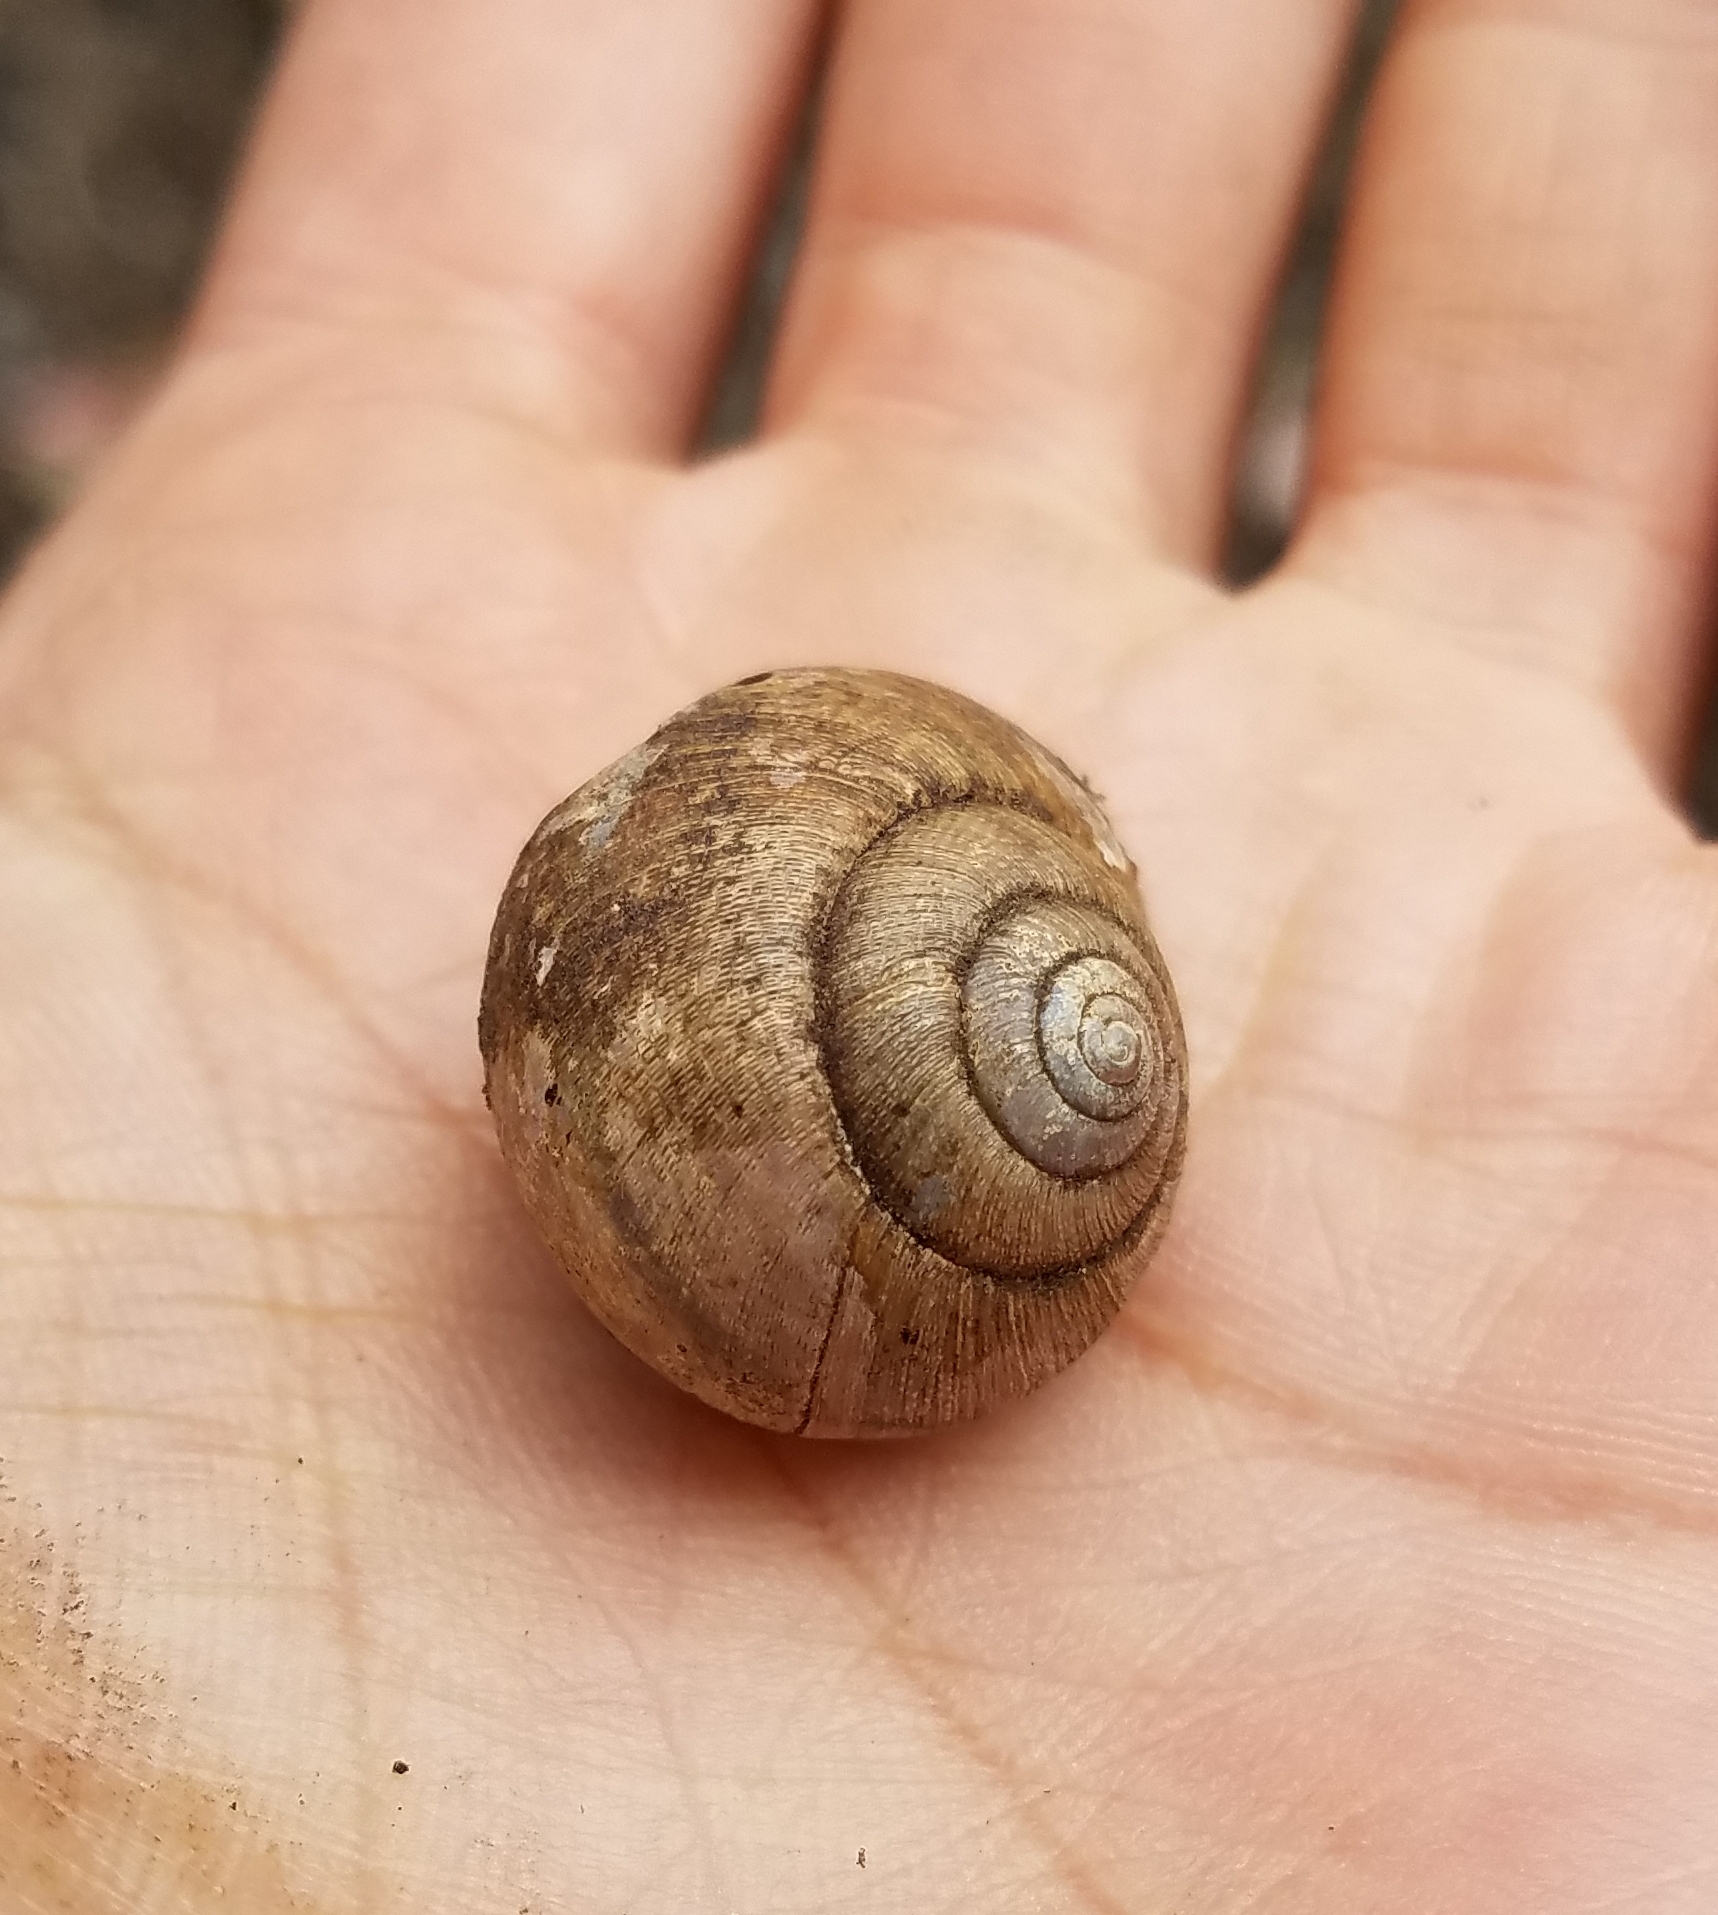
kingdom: Animalia
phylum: Mollusca
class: Gastropoda
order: Stylommatophora
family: Xanthonychidae
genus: Helminthoglypta
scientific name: Helminthoglypta nickliniana
